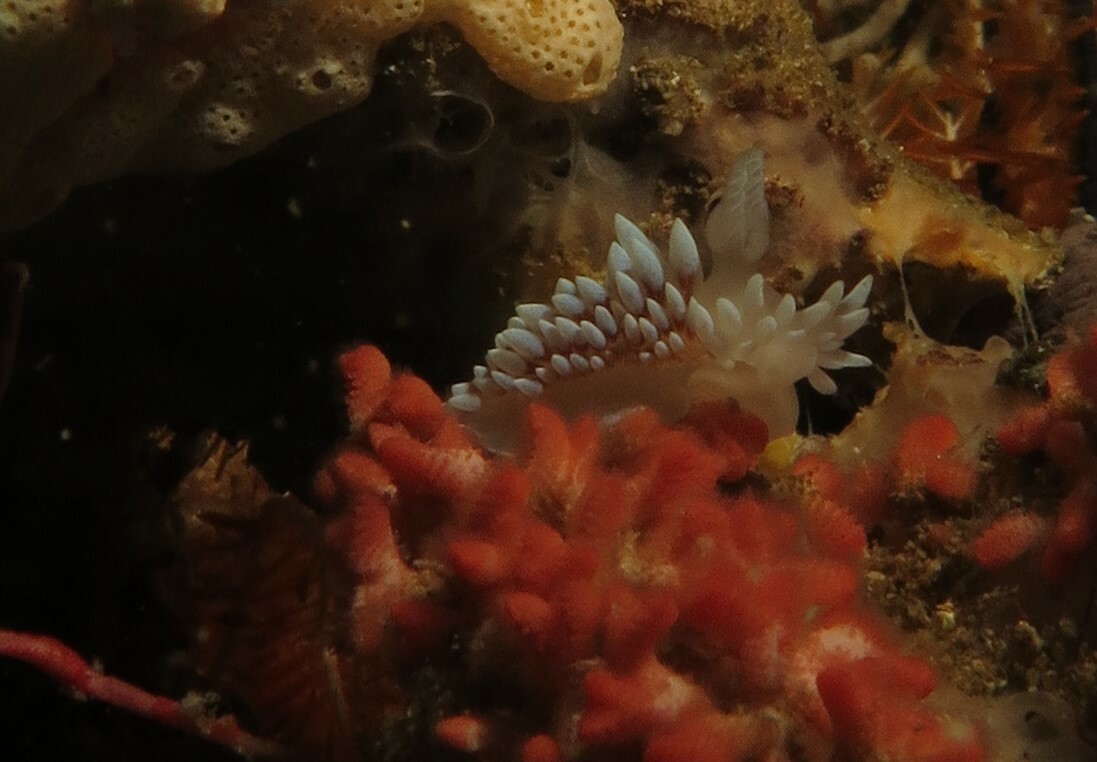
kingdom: Animalia
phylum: Mollusca
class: Gastropoda
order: Nudibranchia
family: Janolidae
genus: Antiopella
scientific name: Antiopella capensis
